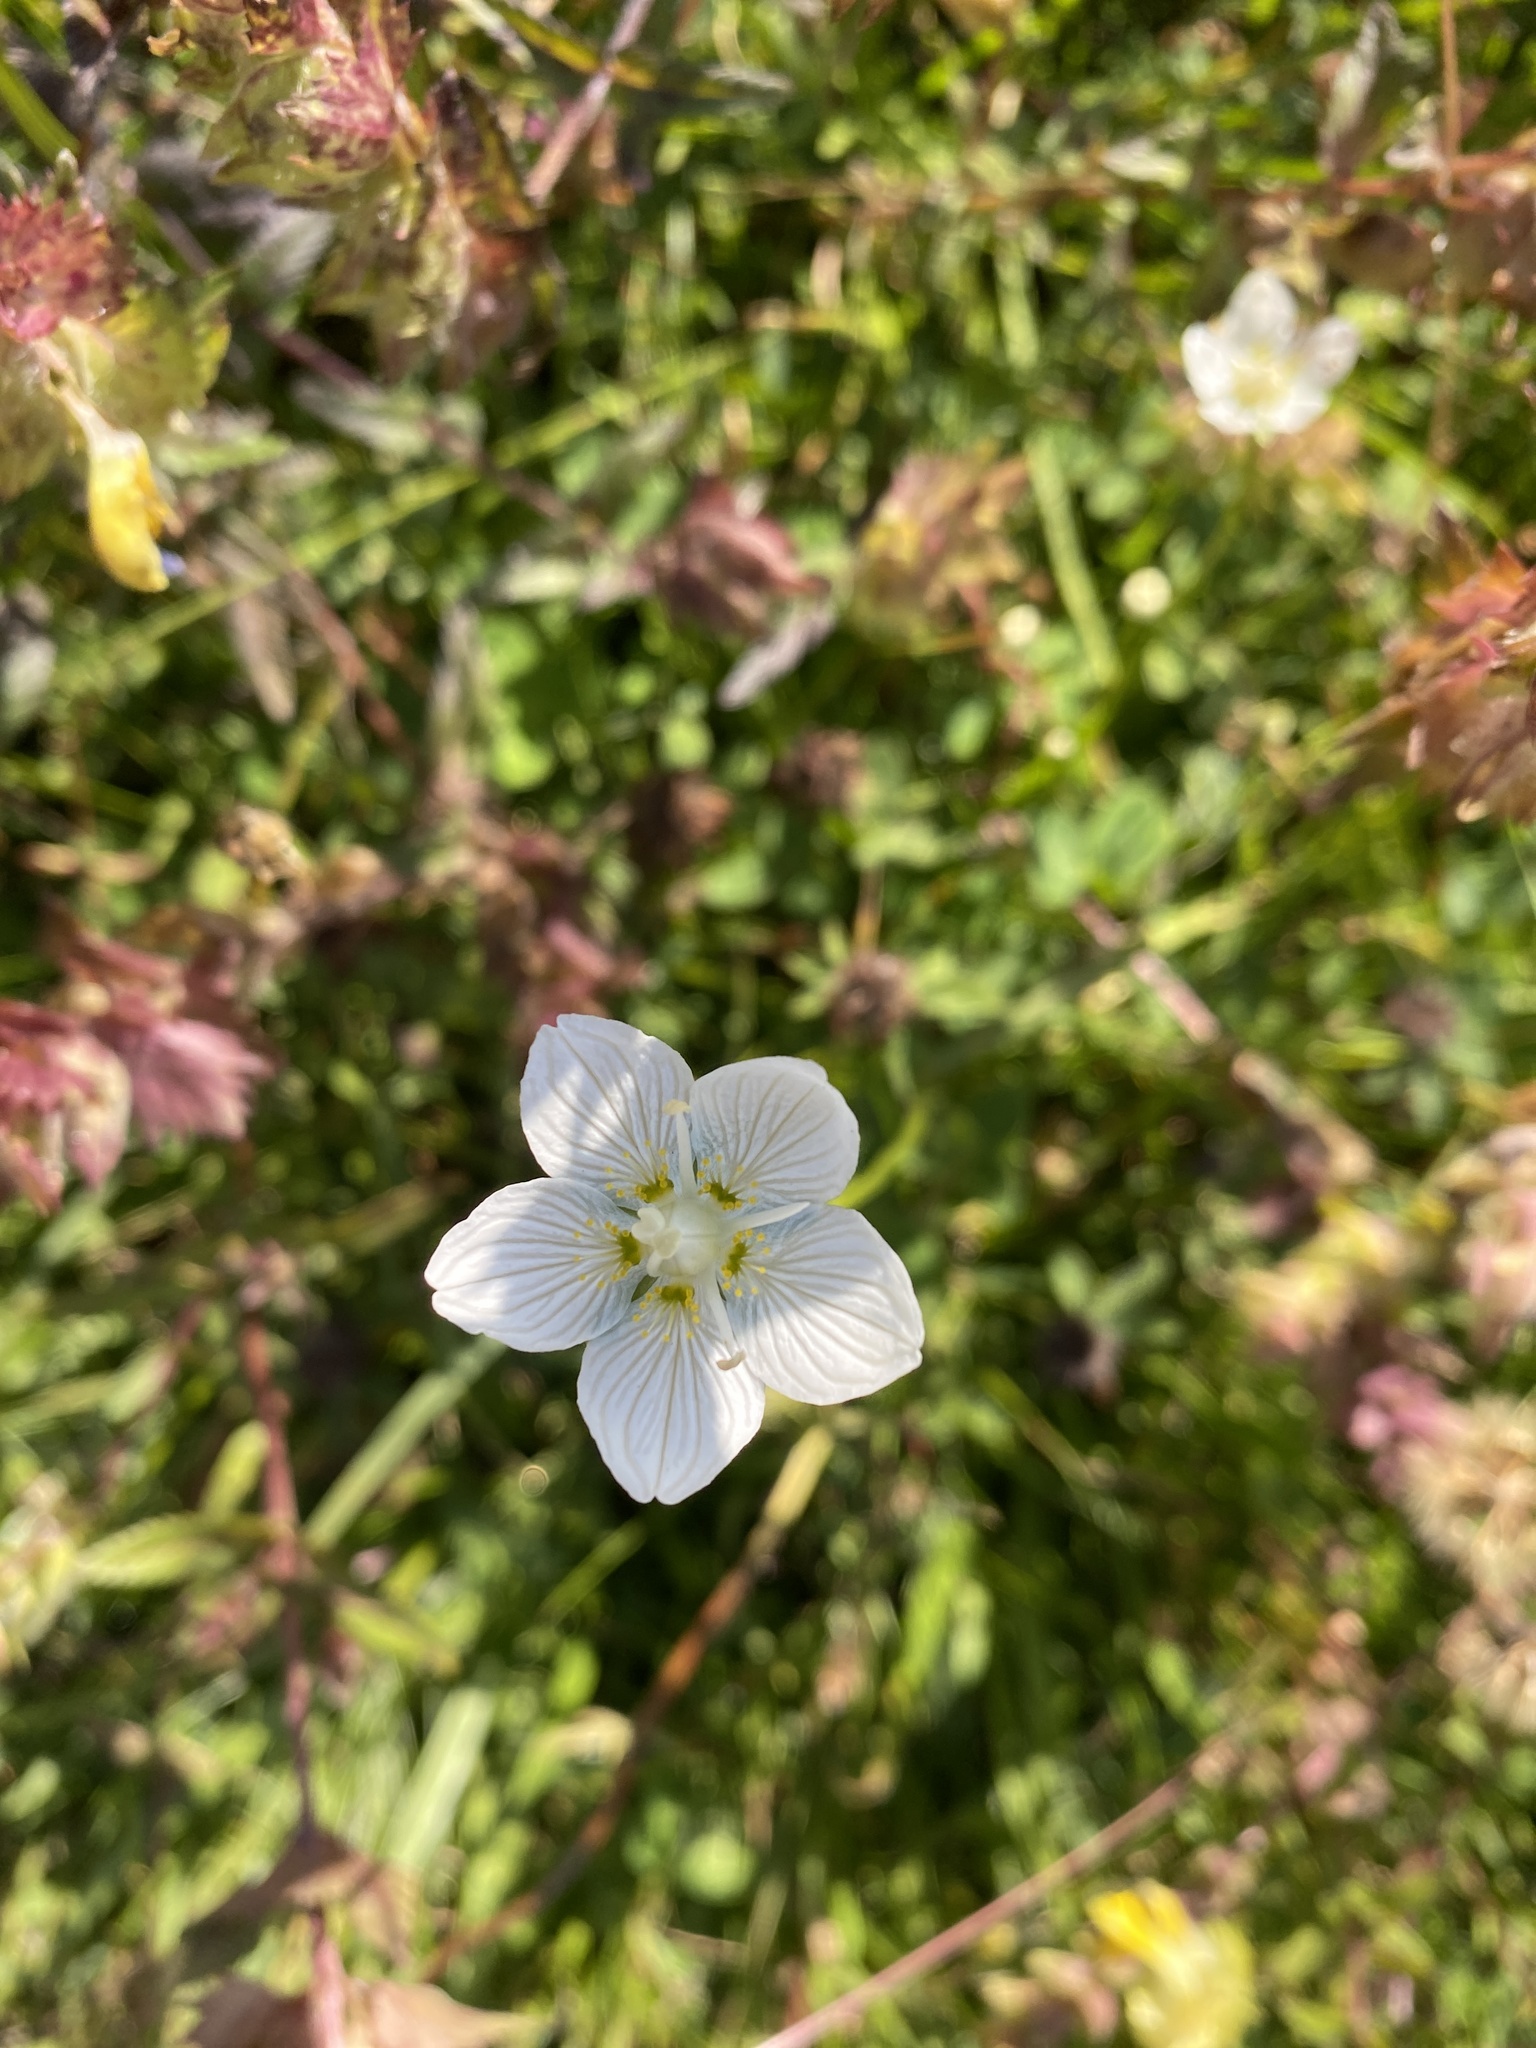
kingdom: Plantae
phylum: Tracheophyta
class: Magnoliopsida
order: Celastrales
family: Parnassiaceae
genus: Parnassia
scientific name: Parnassia palustris
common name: Grass-of-parnassus
